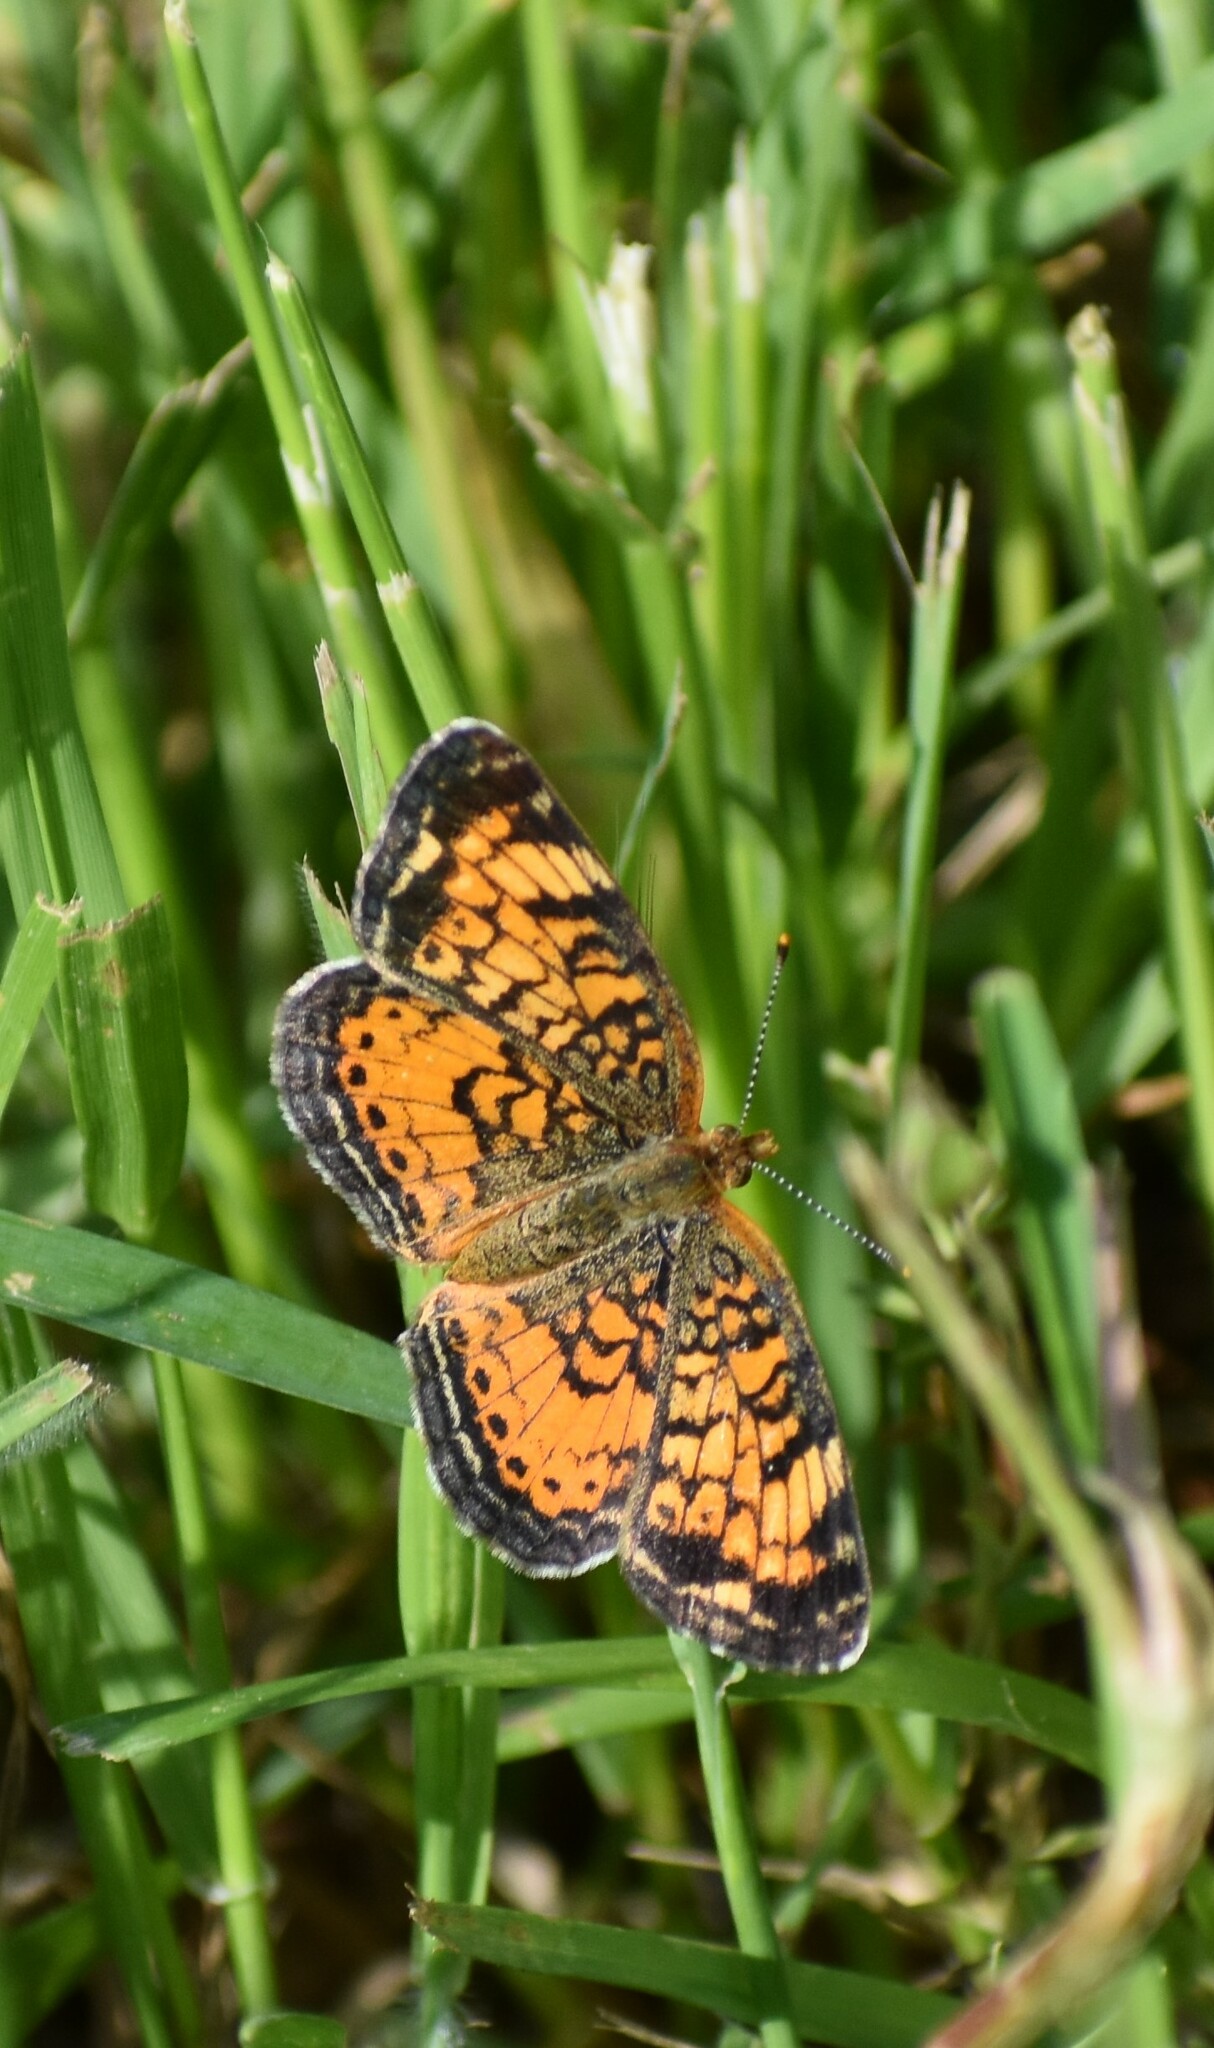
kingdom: Animalia
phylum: Arthropoda
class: Insecta
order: Lepidoptera
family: Nymphalidae
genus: Phyciodes
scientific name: Phyciodes tharos
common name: Pearl crescent
